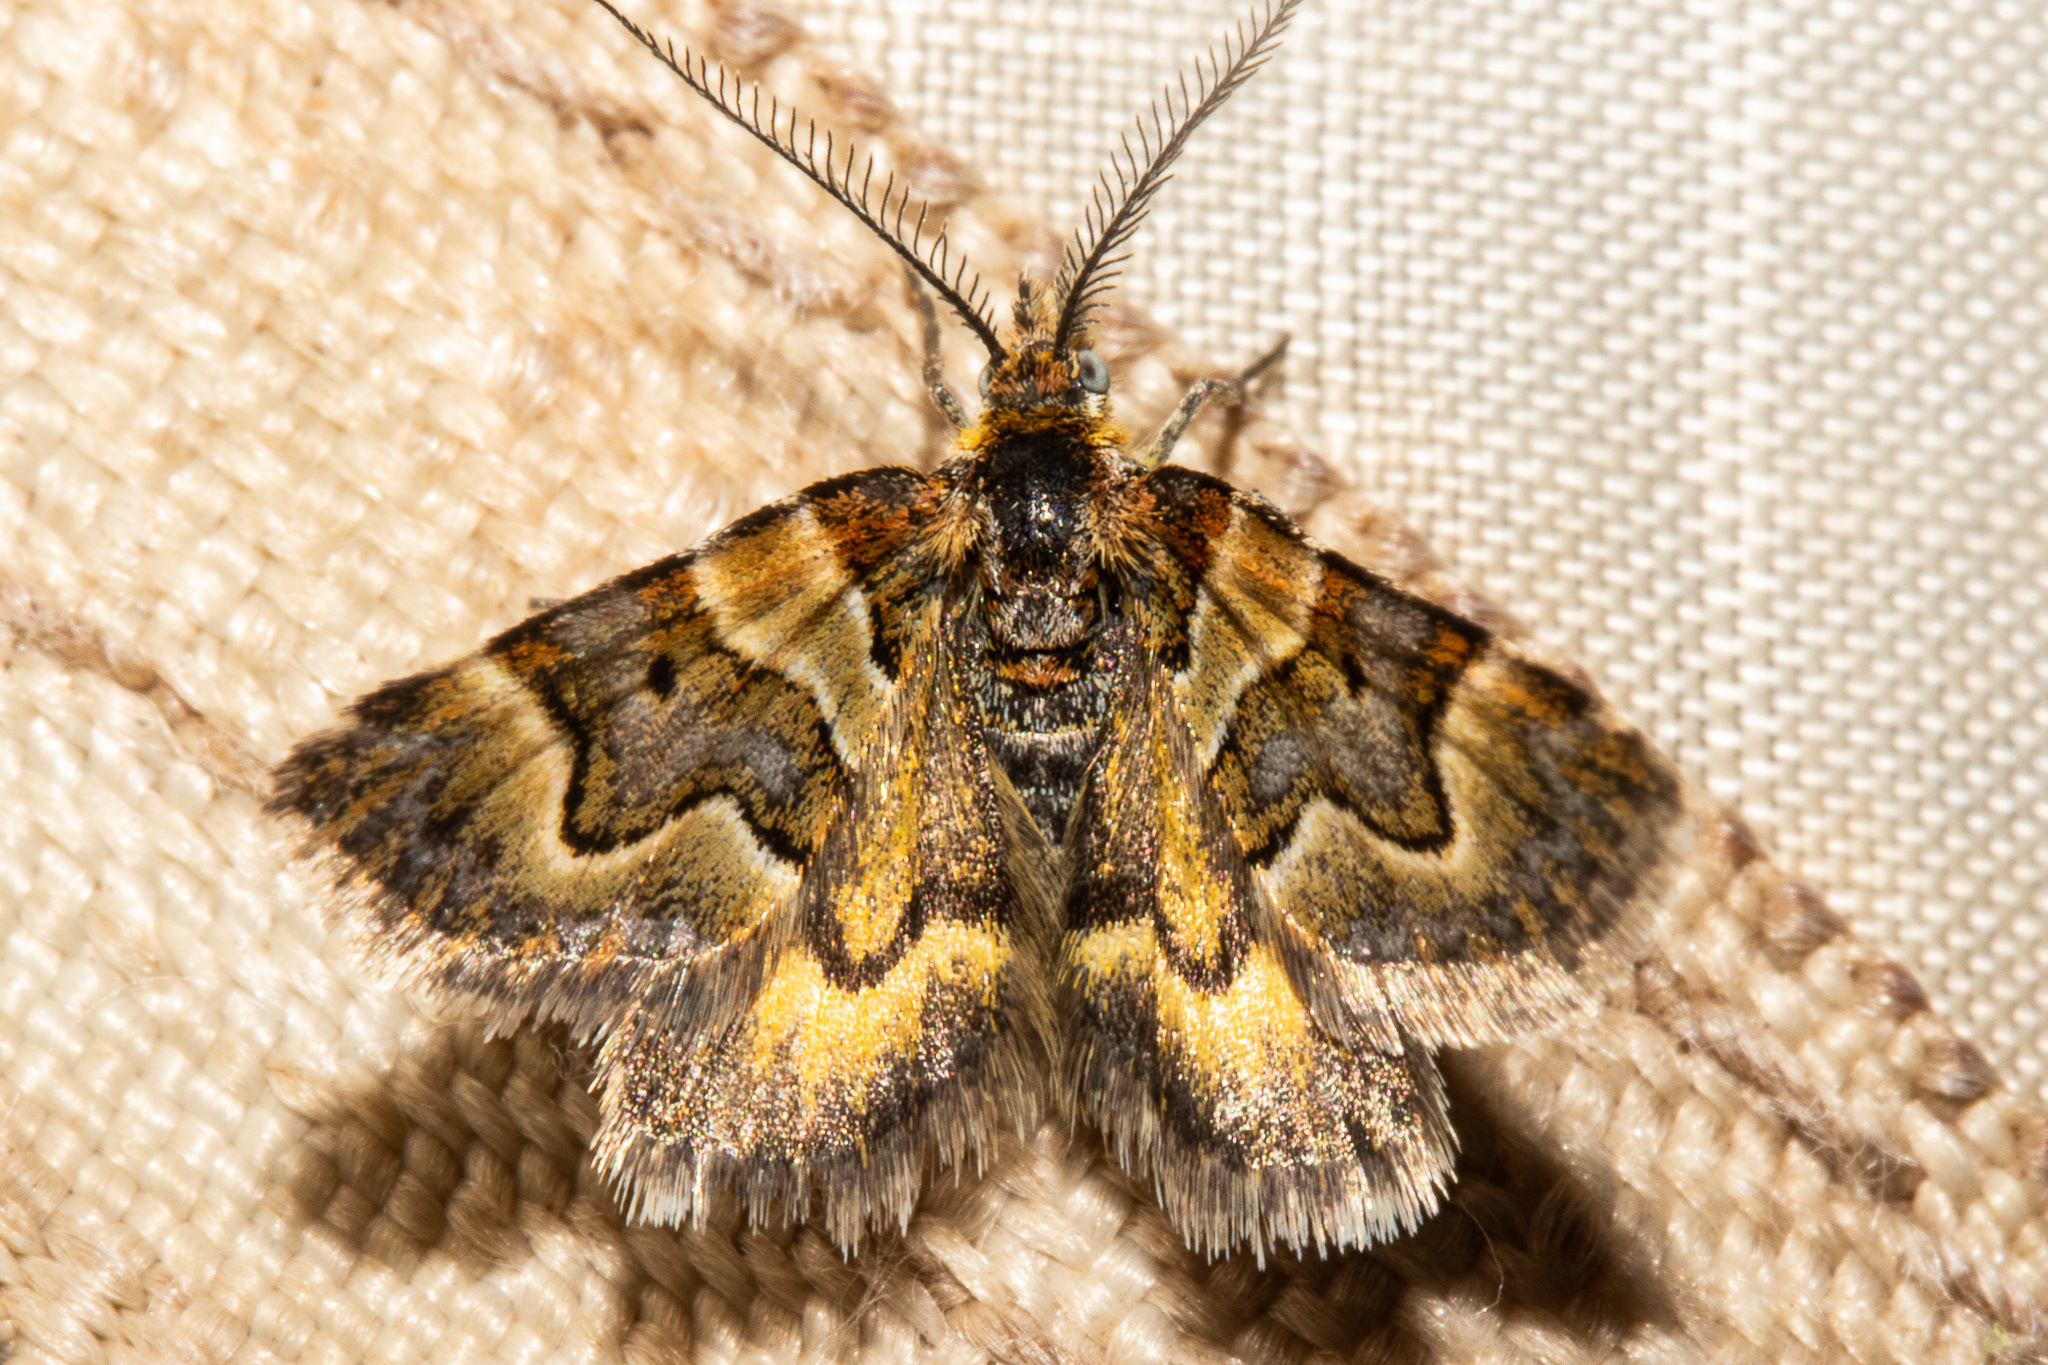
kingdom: Animalia
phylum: Arthropoda
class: Insecta
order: Lepidoptera
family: Geometridae
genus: Arctesthes
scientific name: Arctesthes siris
